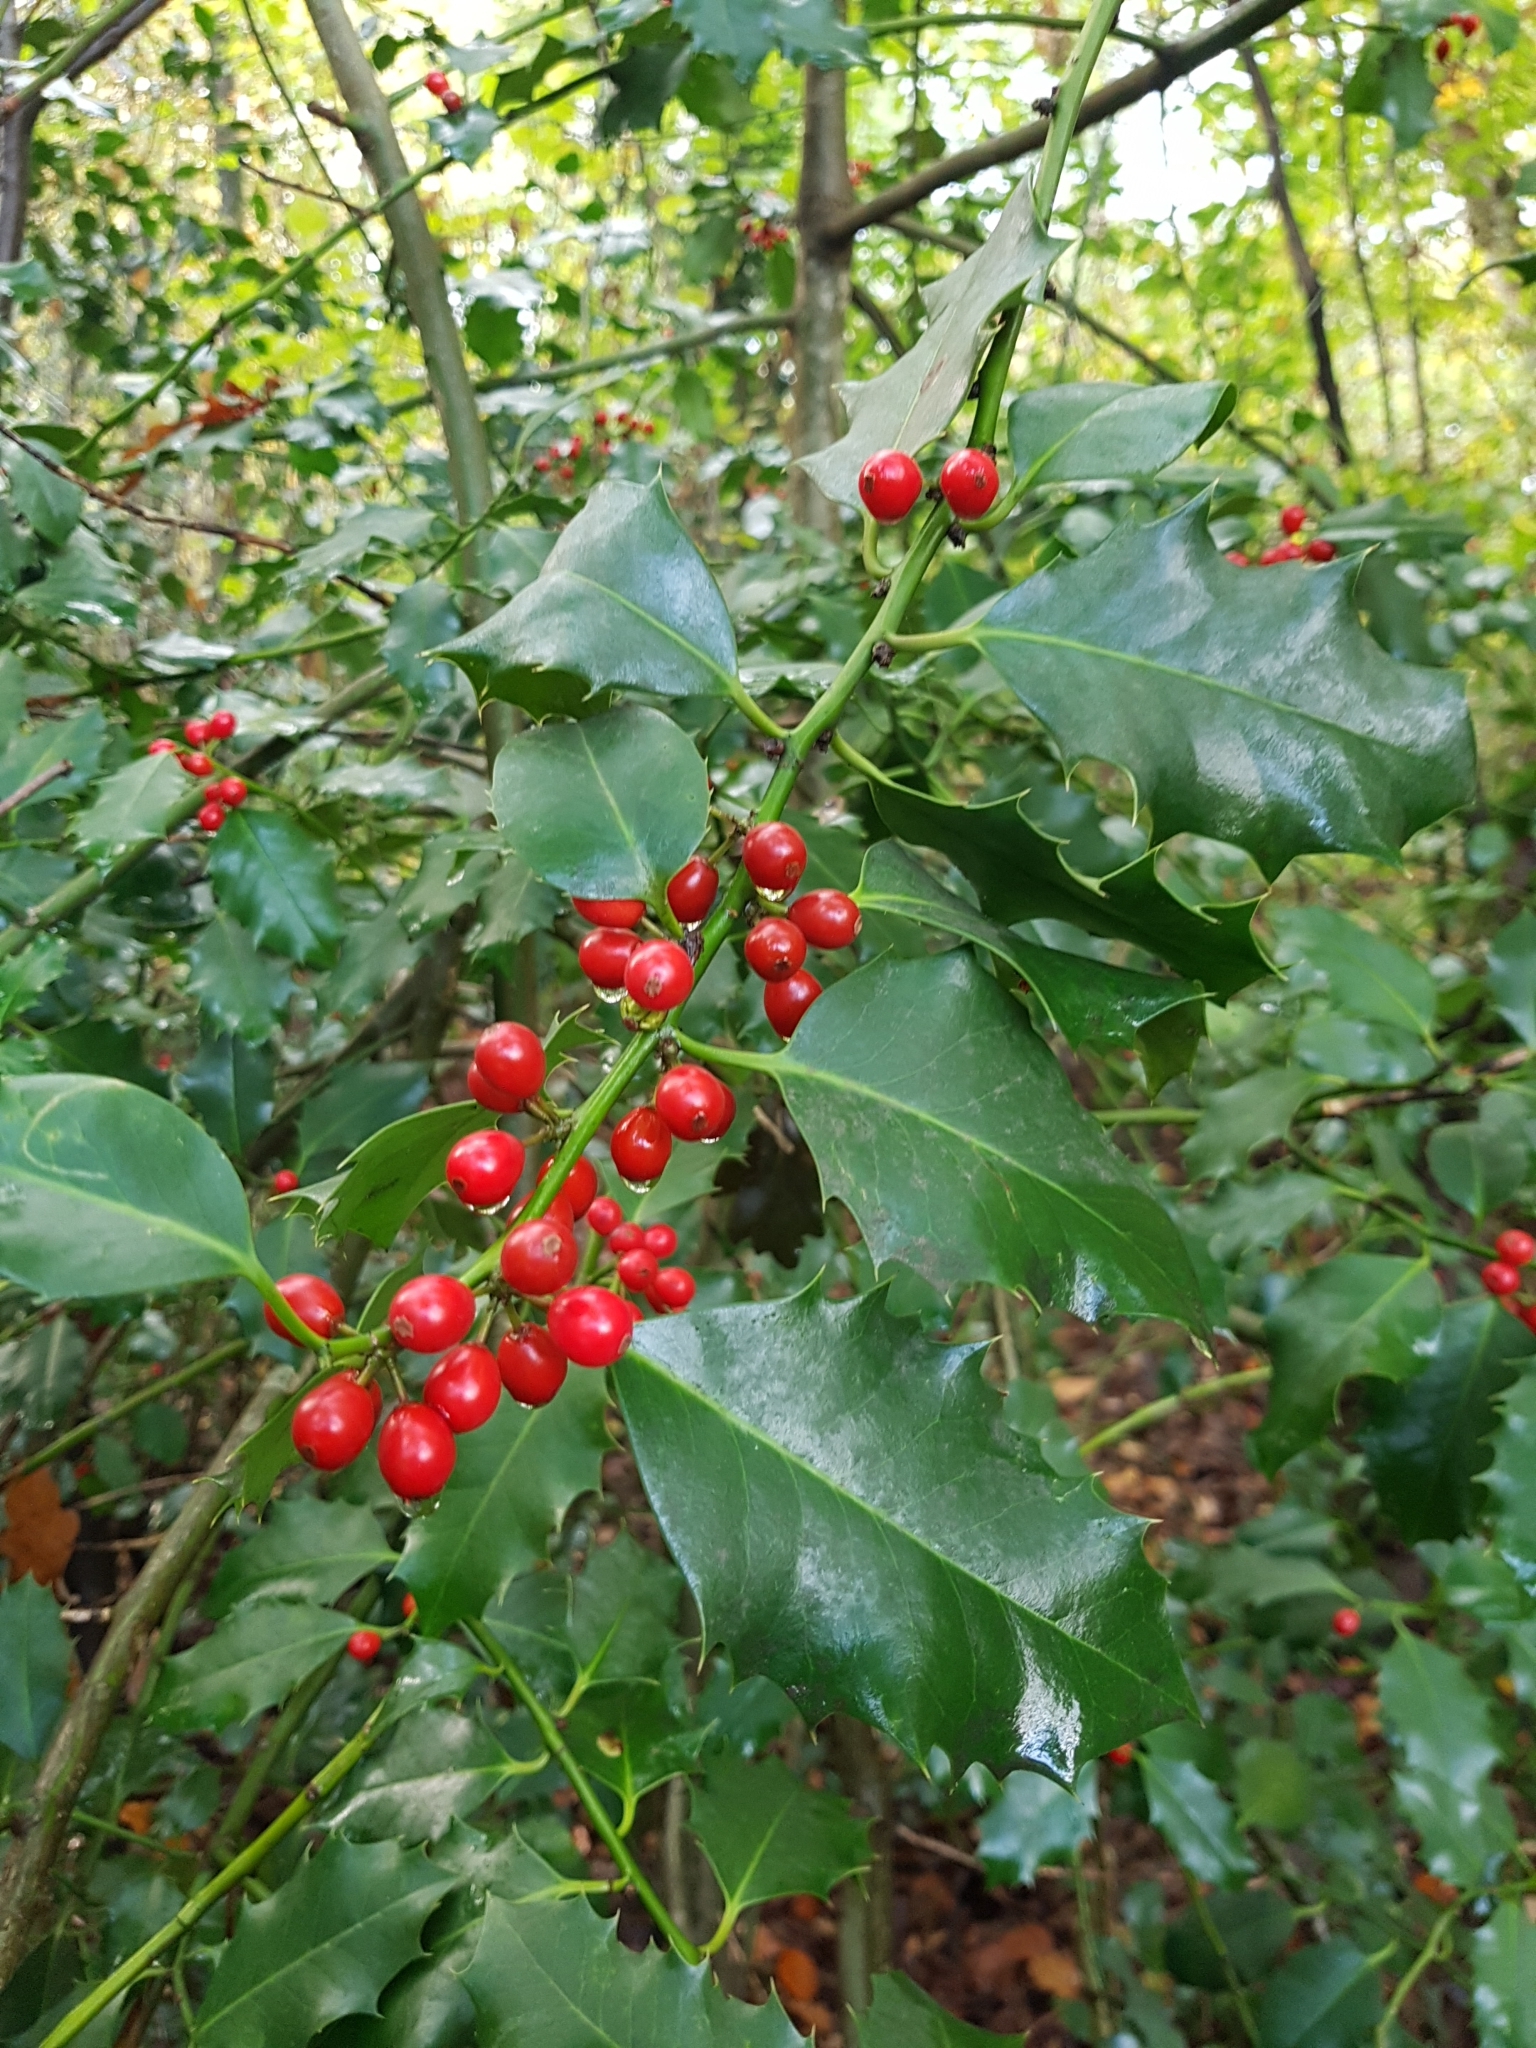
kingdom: Plantae
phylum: Tracheophyta
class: Magnoliopsida
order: Aquifoliales
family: Aquifoliaceae
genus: Ilex
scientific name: Ilex aquifolium
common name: English holly
